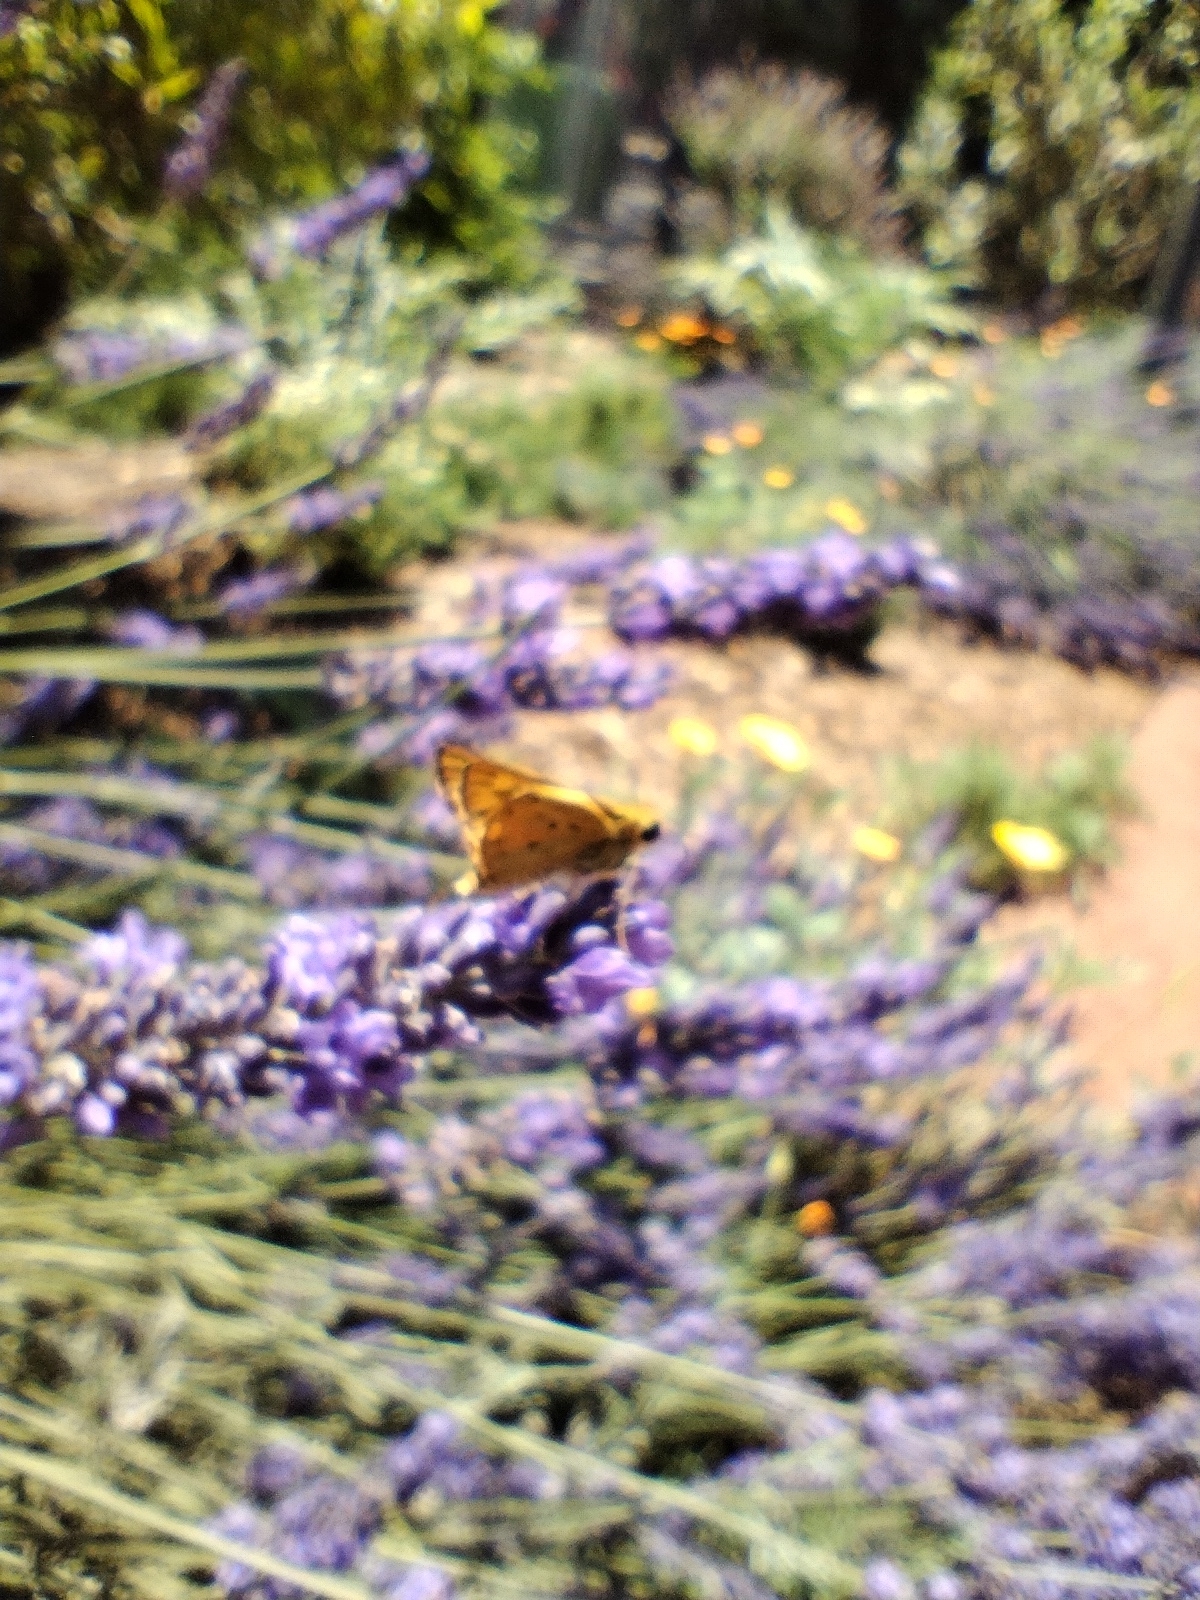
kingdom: Animalia
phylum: Arthropoda
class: Insecta
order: Lepidoptera
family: Hesperiidae
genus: Hylephila
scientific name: Hylephila phyleus
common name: Fiery skipper
